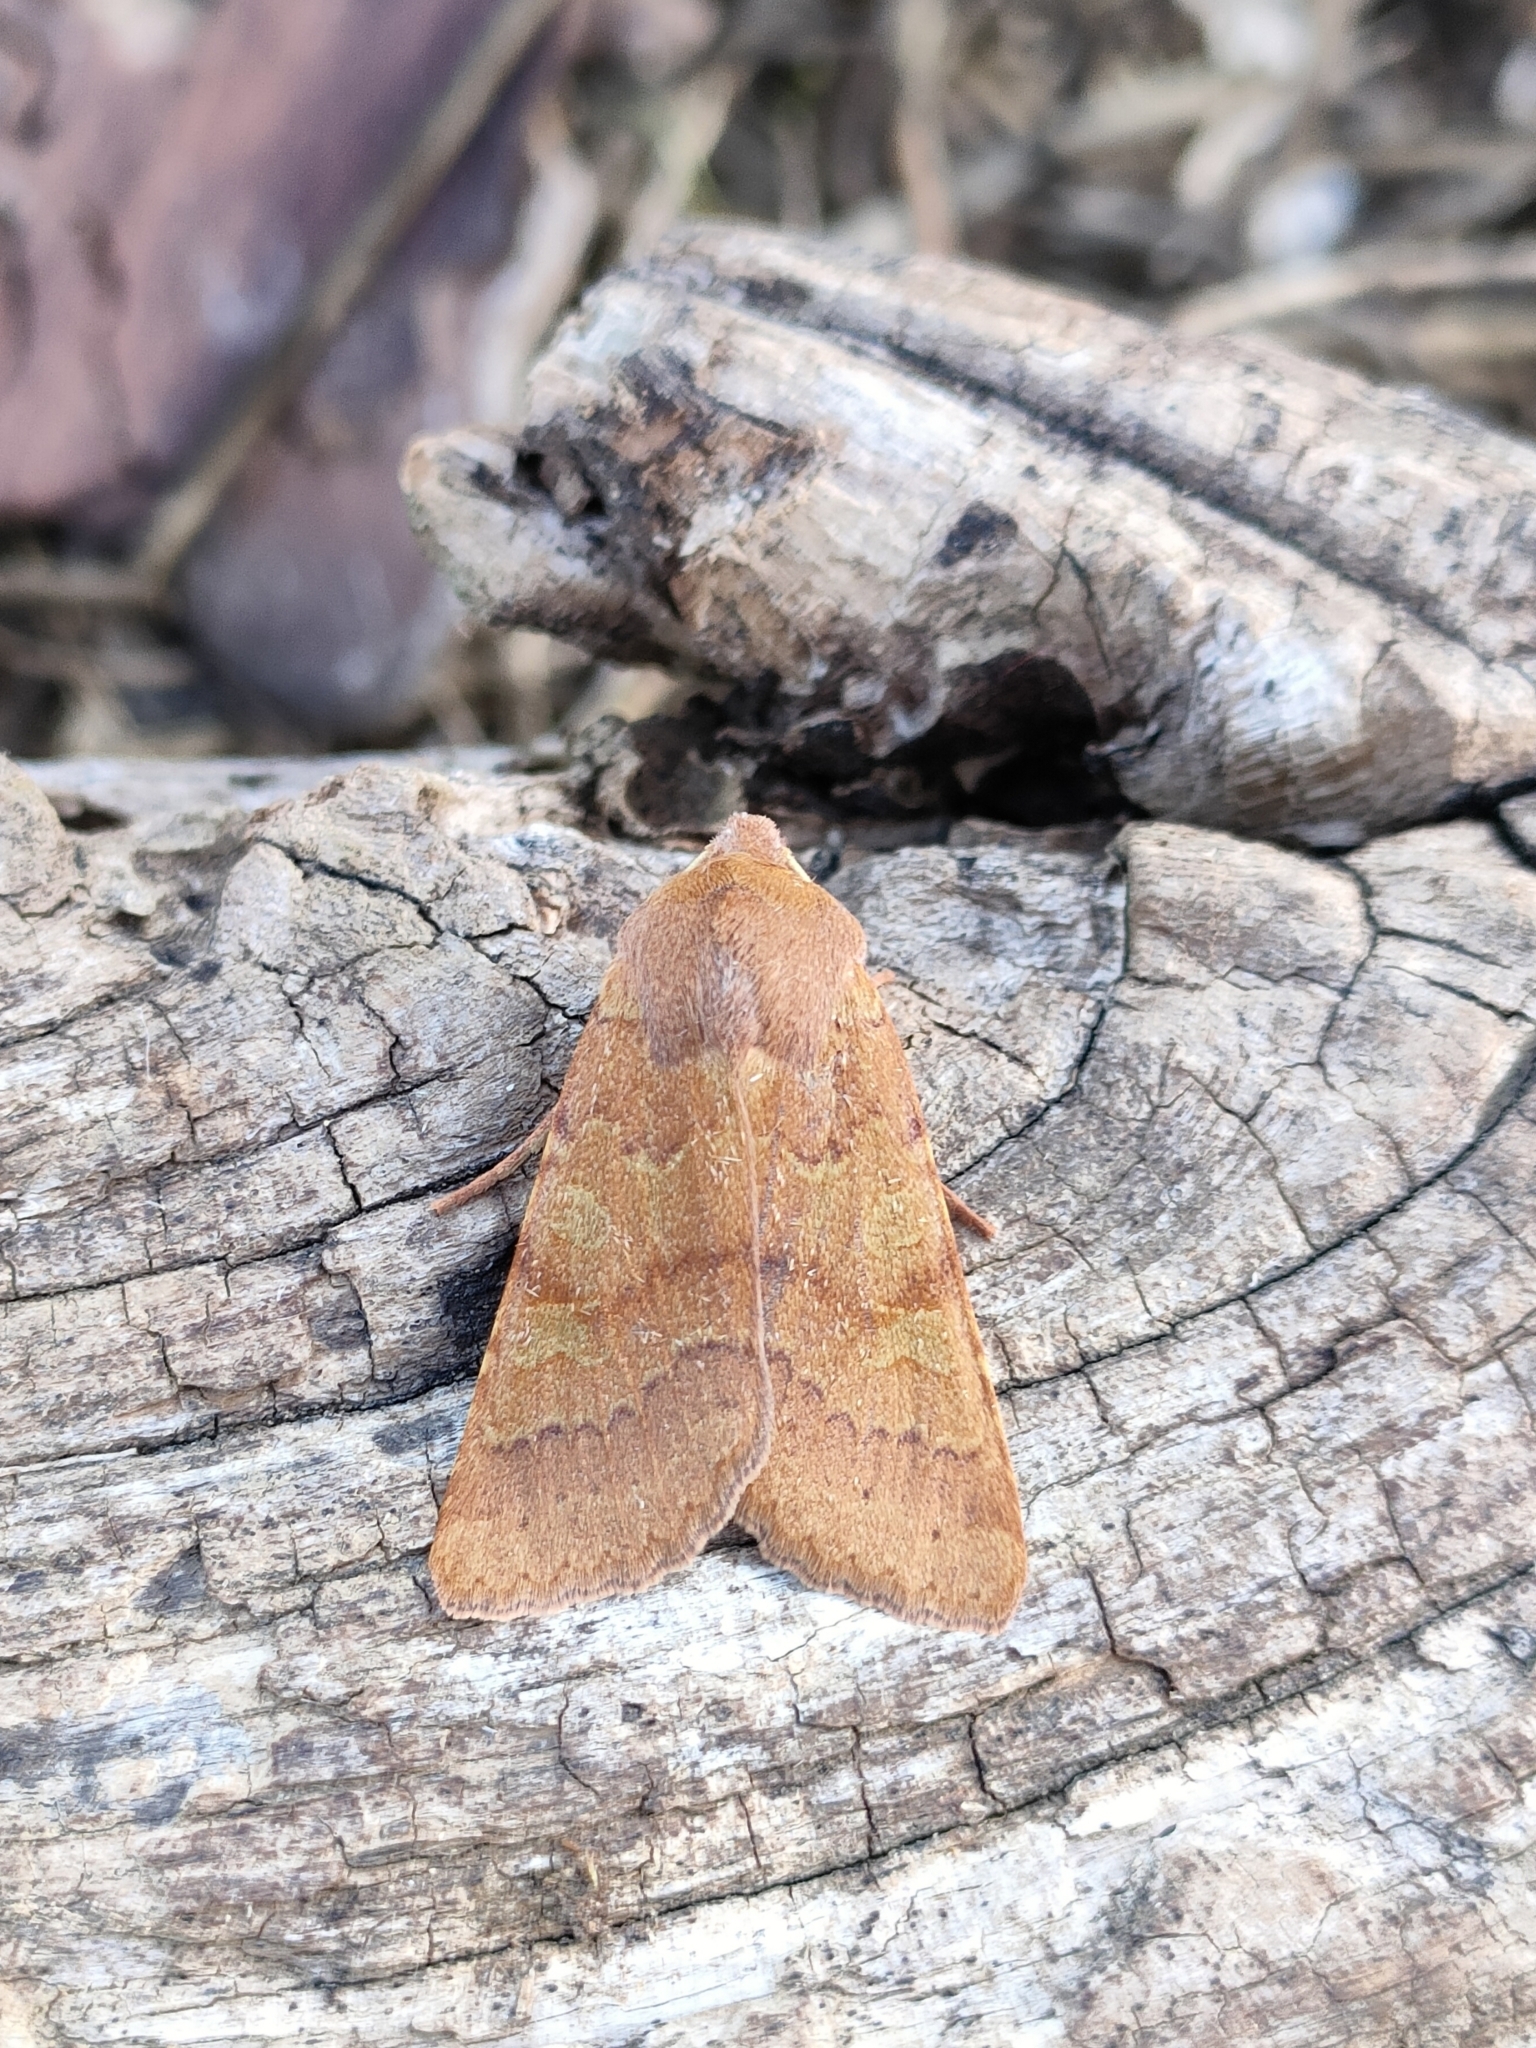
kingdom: Animalia
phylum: Arthropoda
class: Insecta
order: Lepidoptera
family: Noctuidae
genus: Agrochola
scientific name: Agrochola helvola
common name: Flounced chestnut
